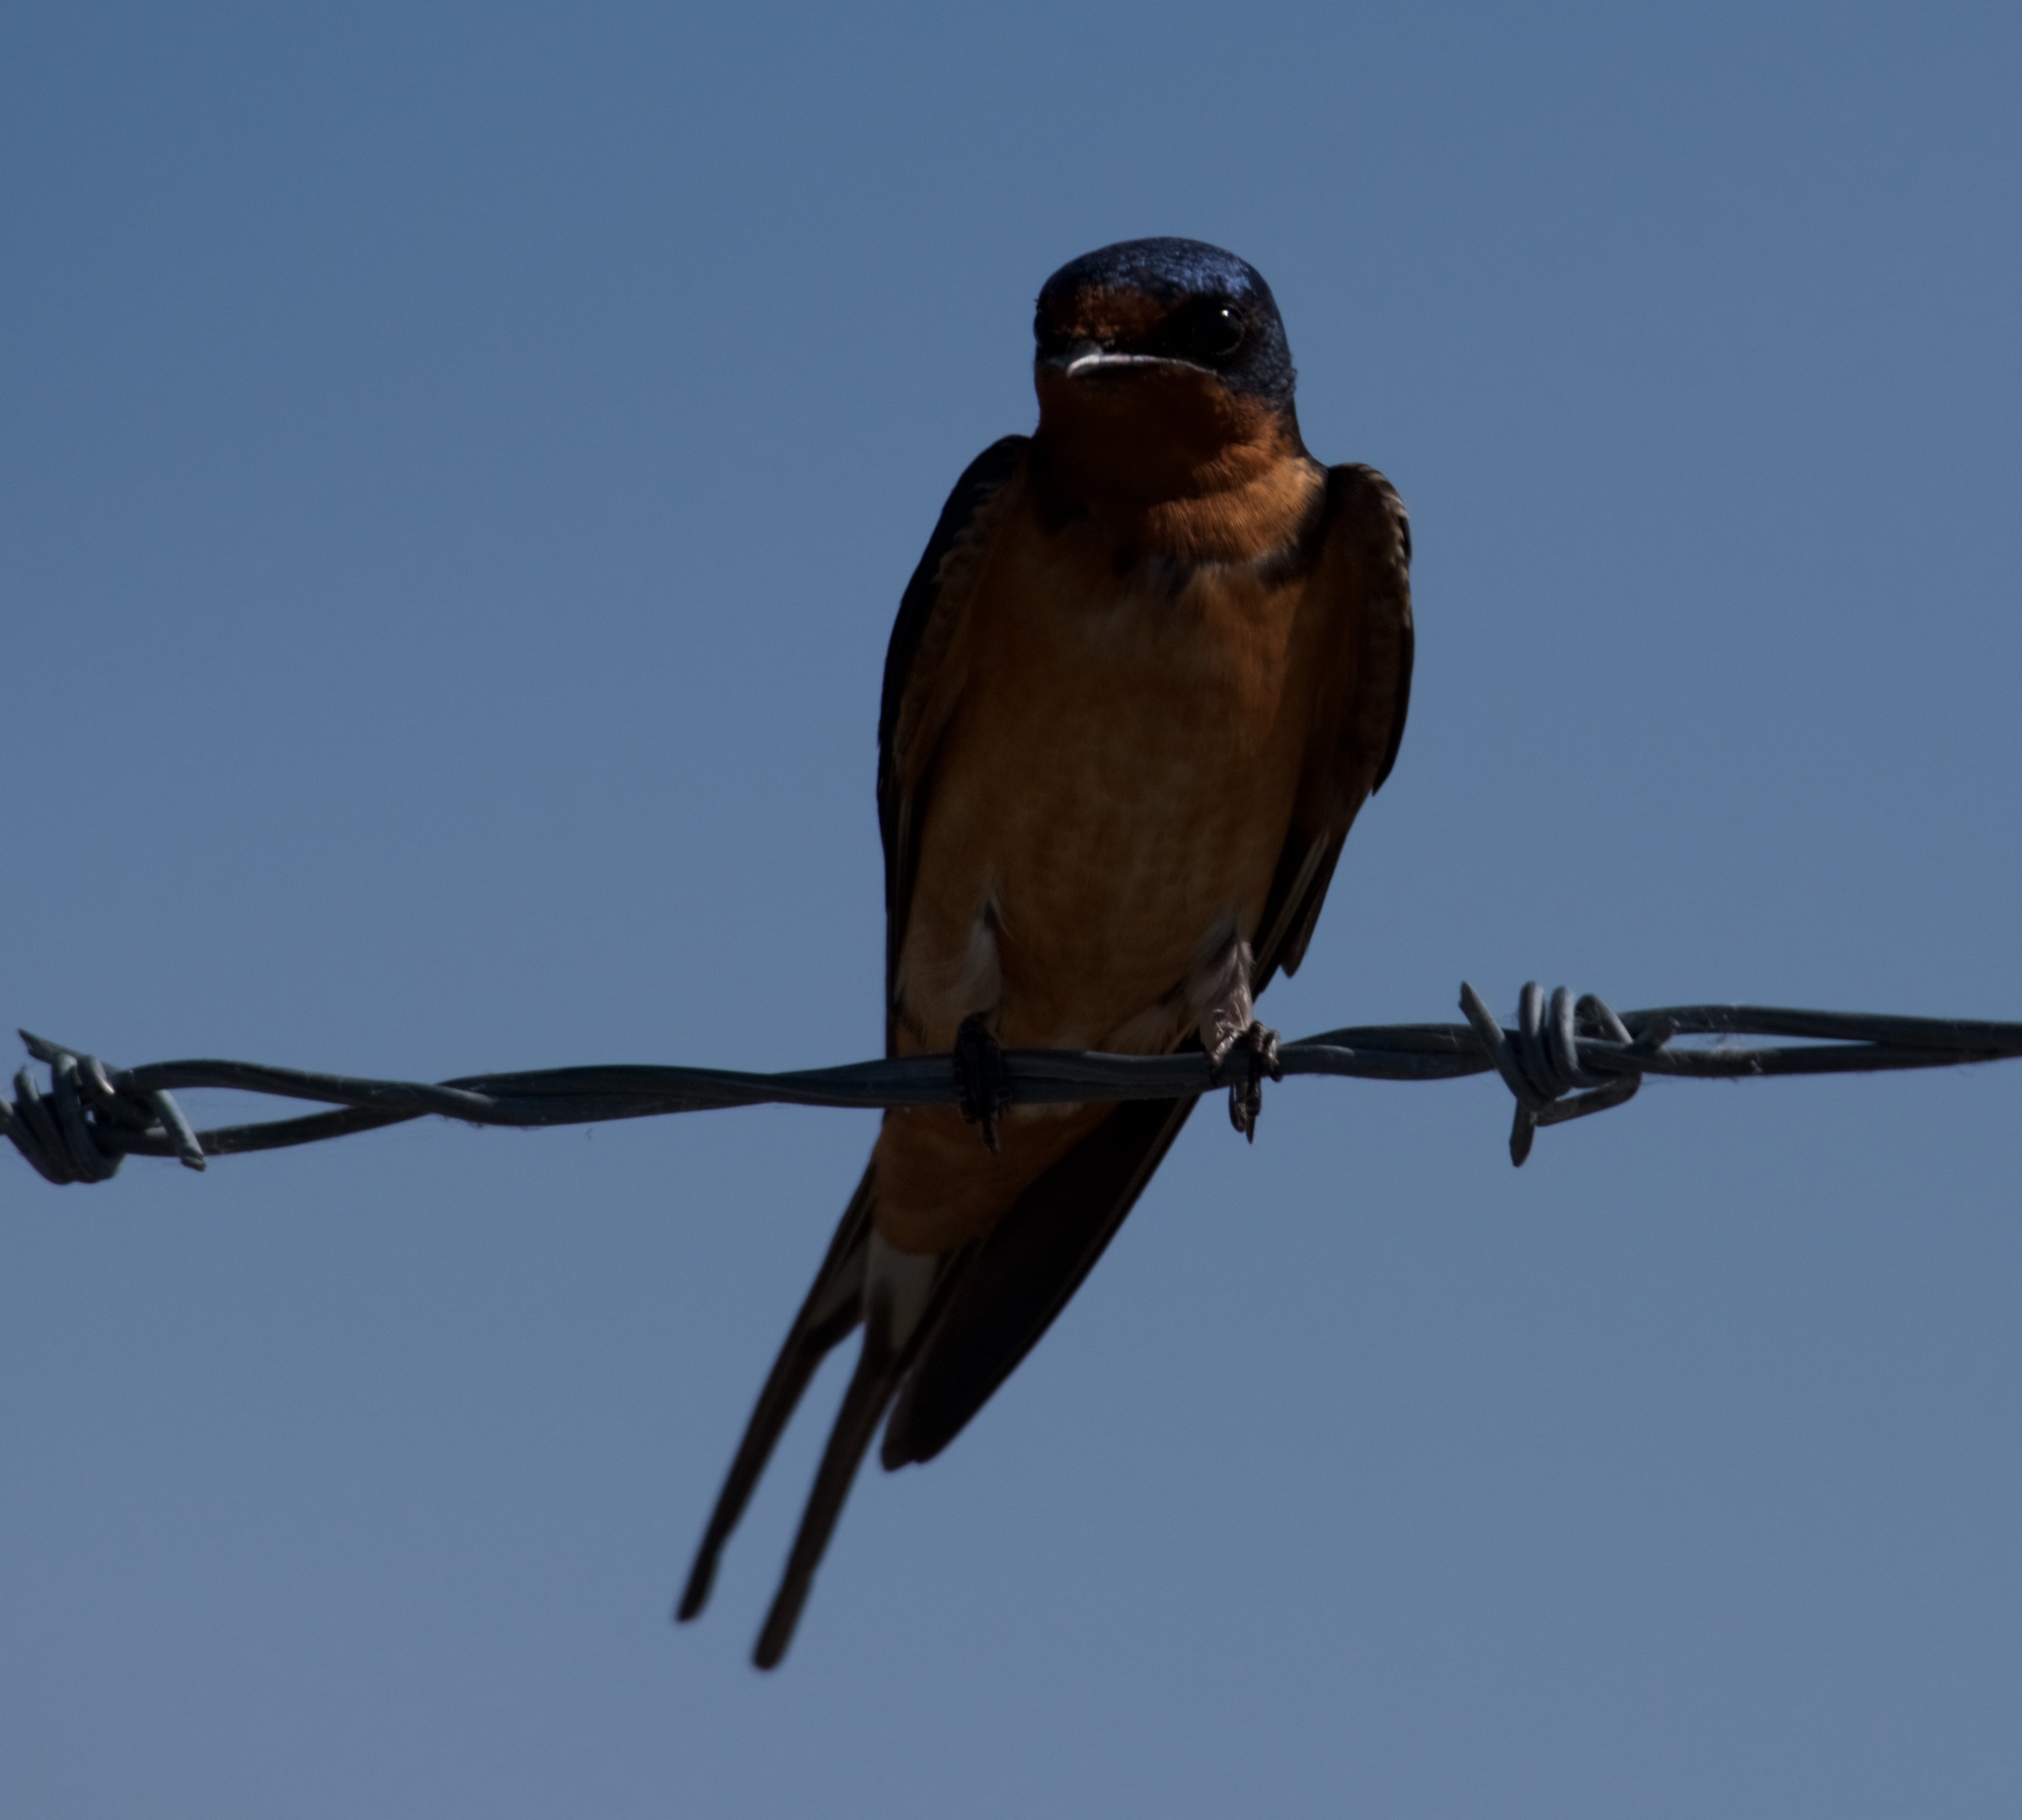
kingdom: Animalia
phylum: Chordata
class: Aves
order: Passeriformes
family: Hirundinidae
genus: Hirundo
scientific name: Hirundo rustica
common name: Barn swallow
